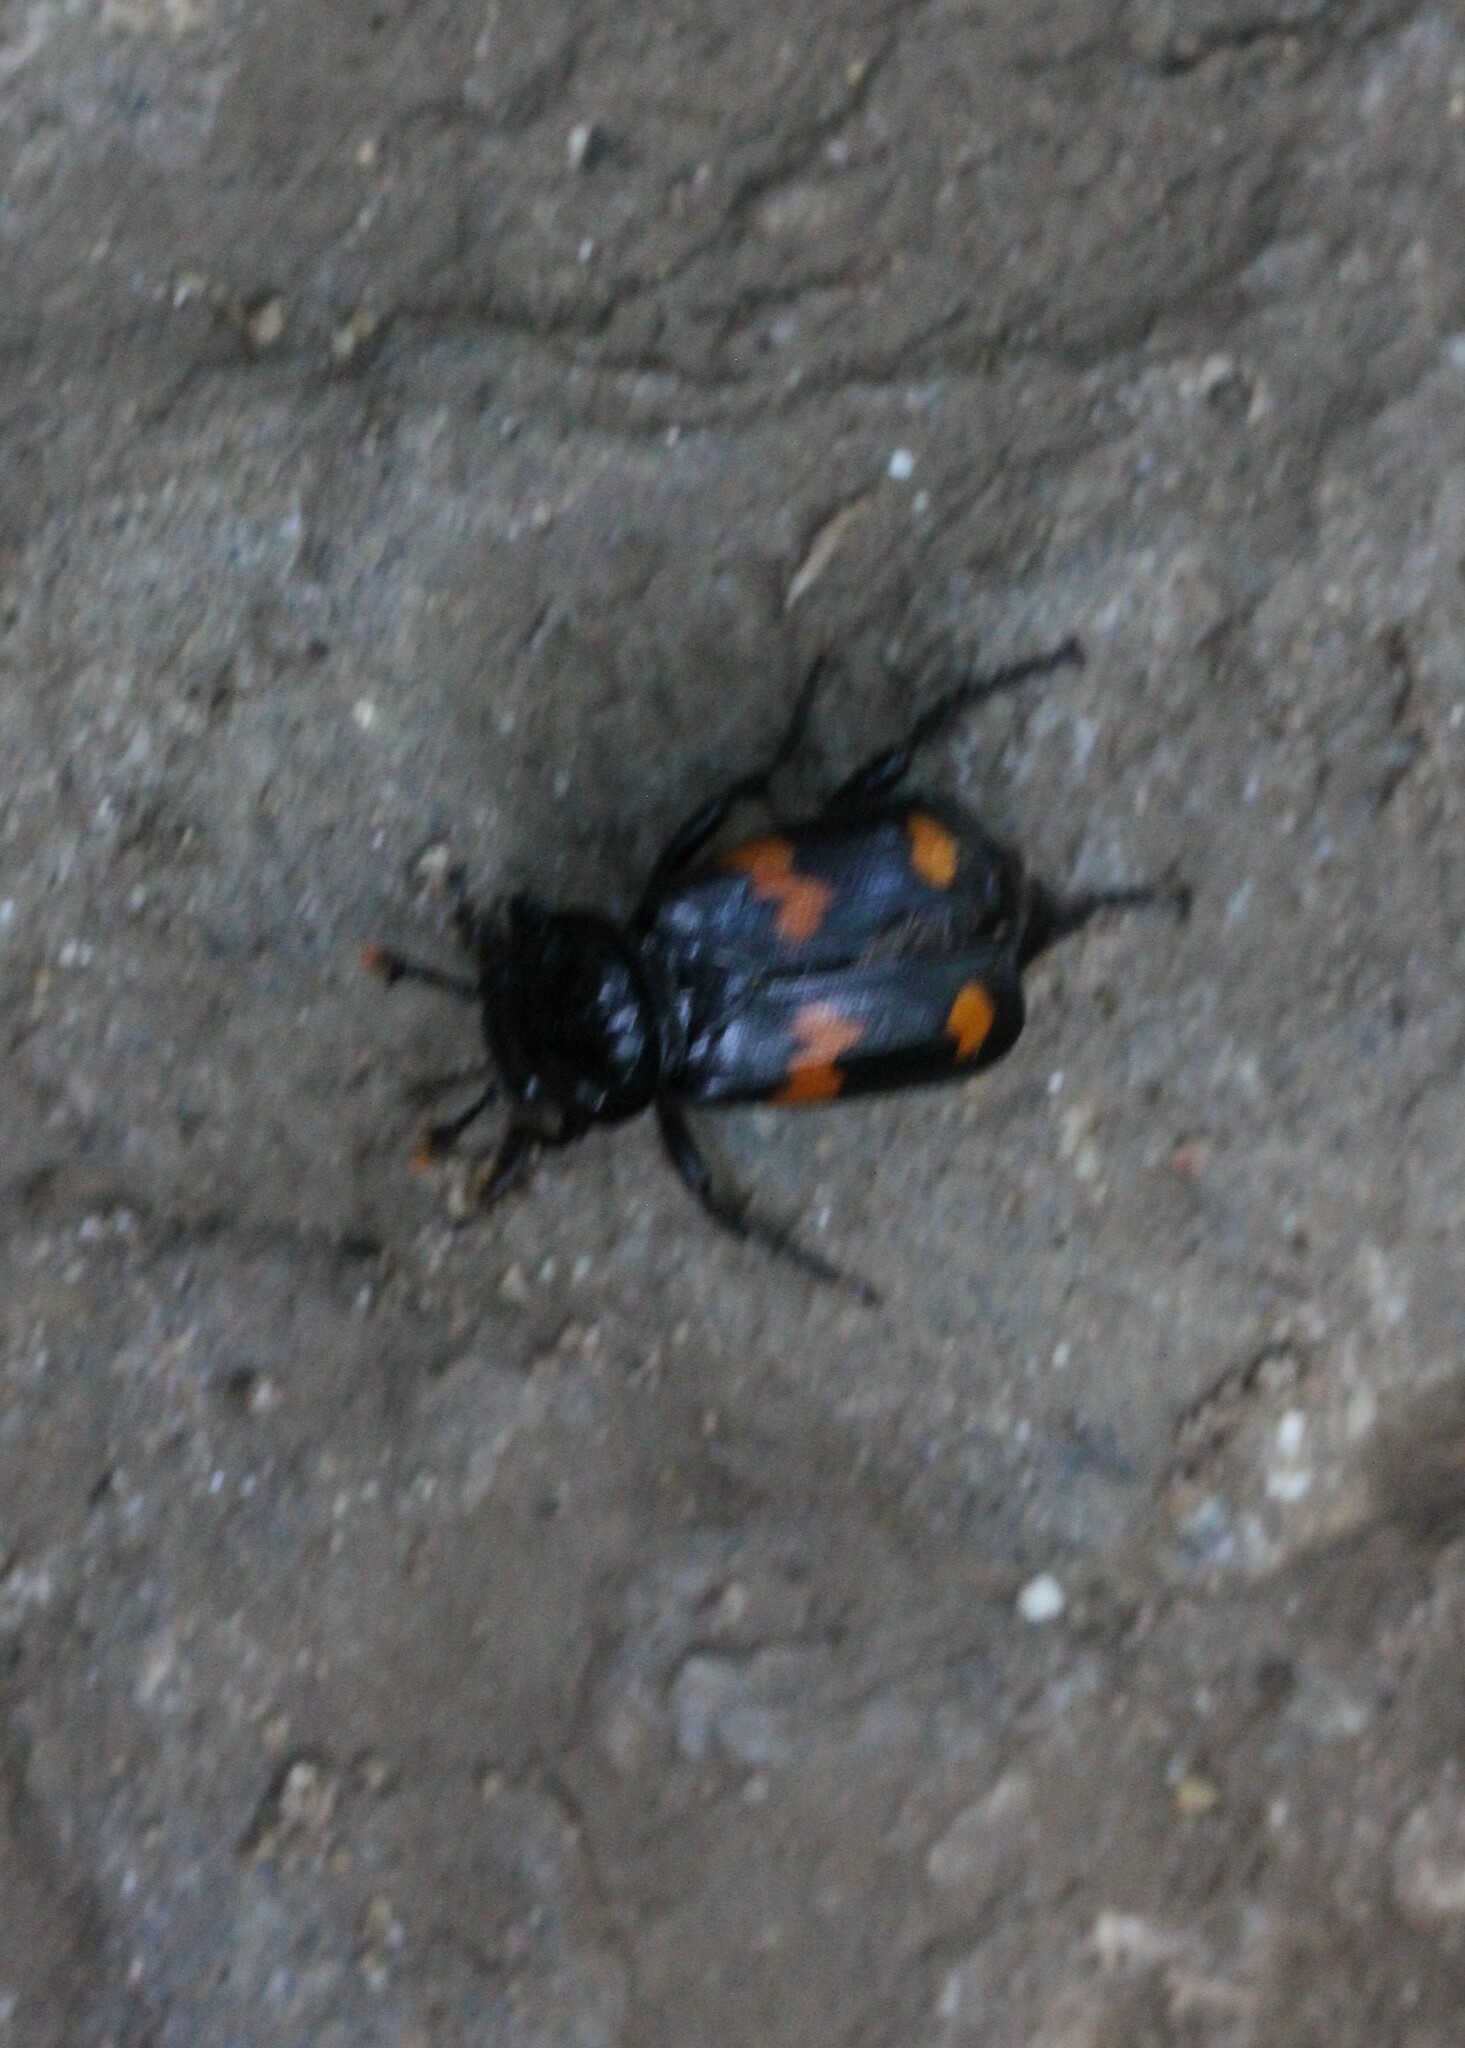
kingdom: Animalia
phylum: Arthropoda
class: Insecta
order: Coleoptera
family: Staphylinidae
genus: Nicrophorus
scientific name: Nicrophorus orbicollis
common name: Roundneck sexton beetle
